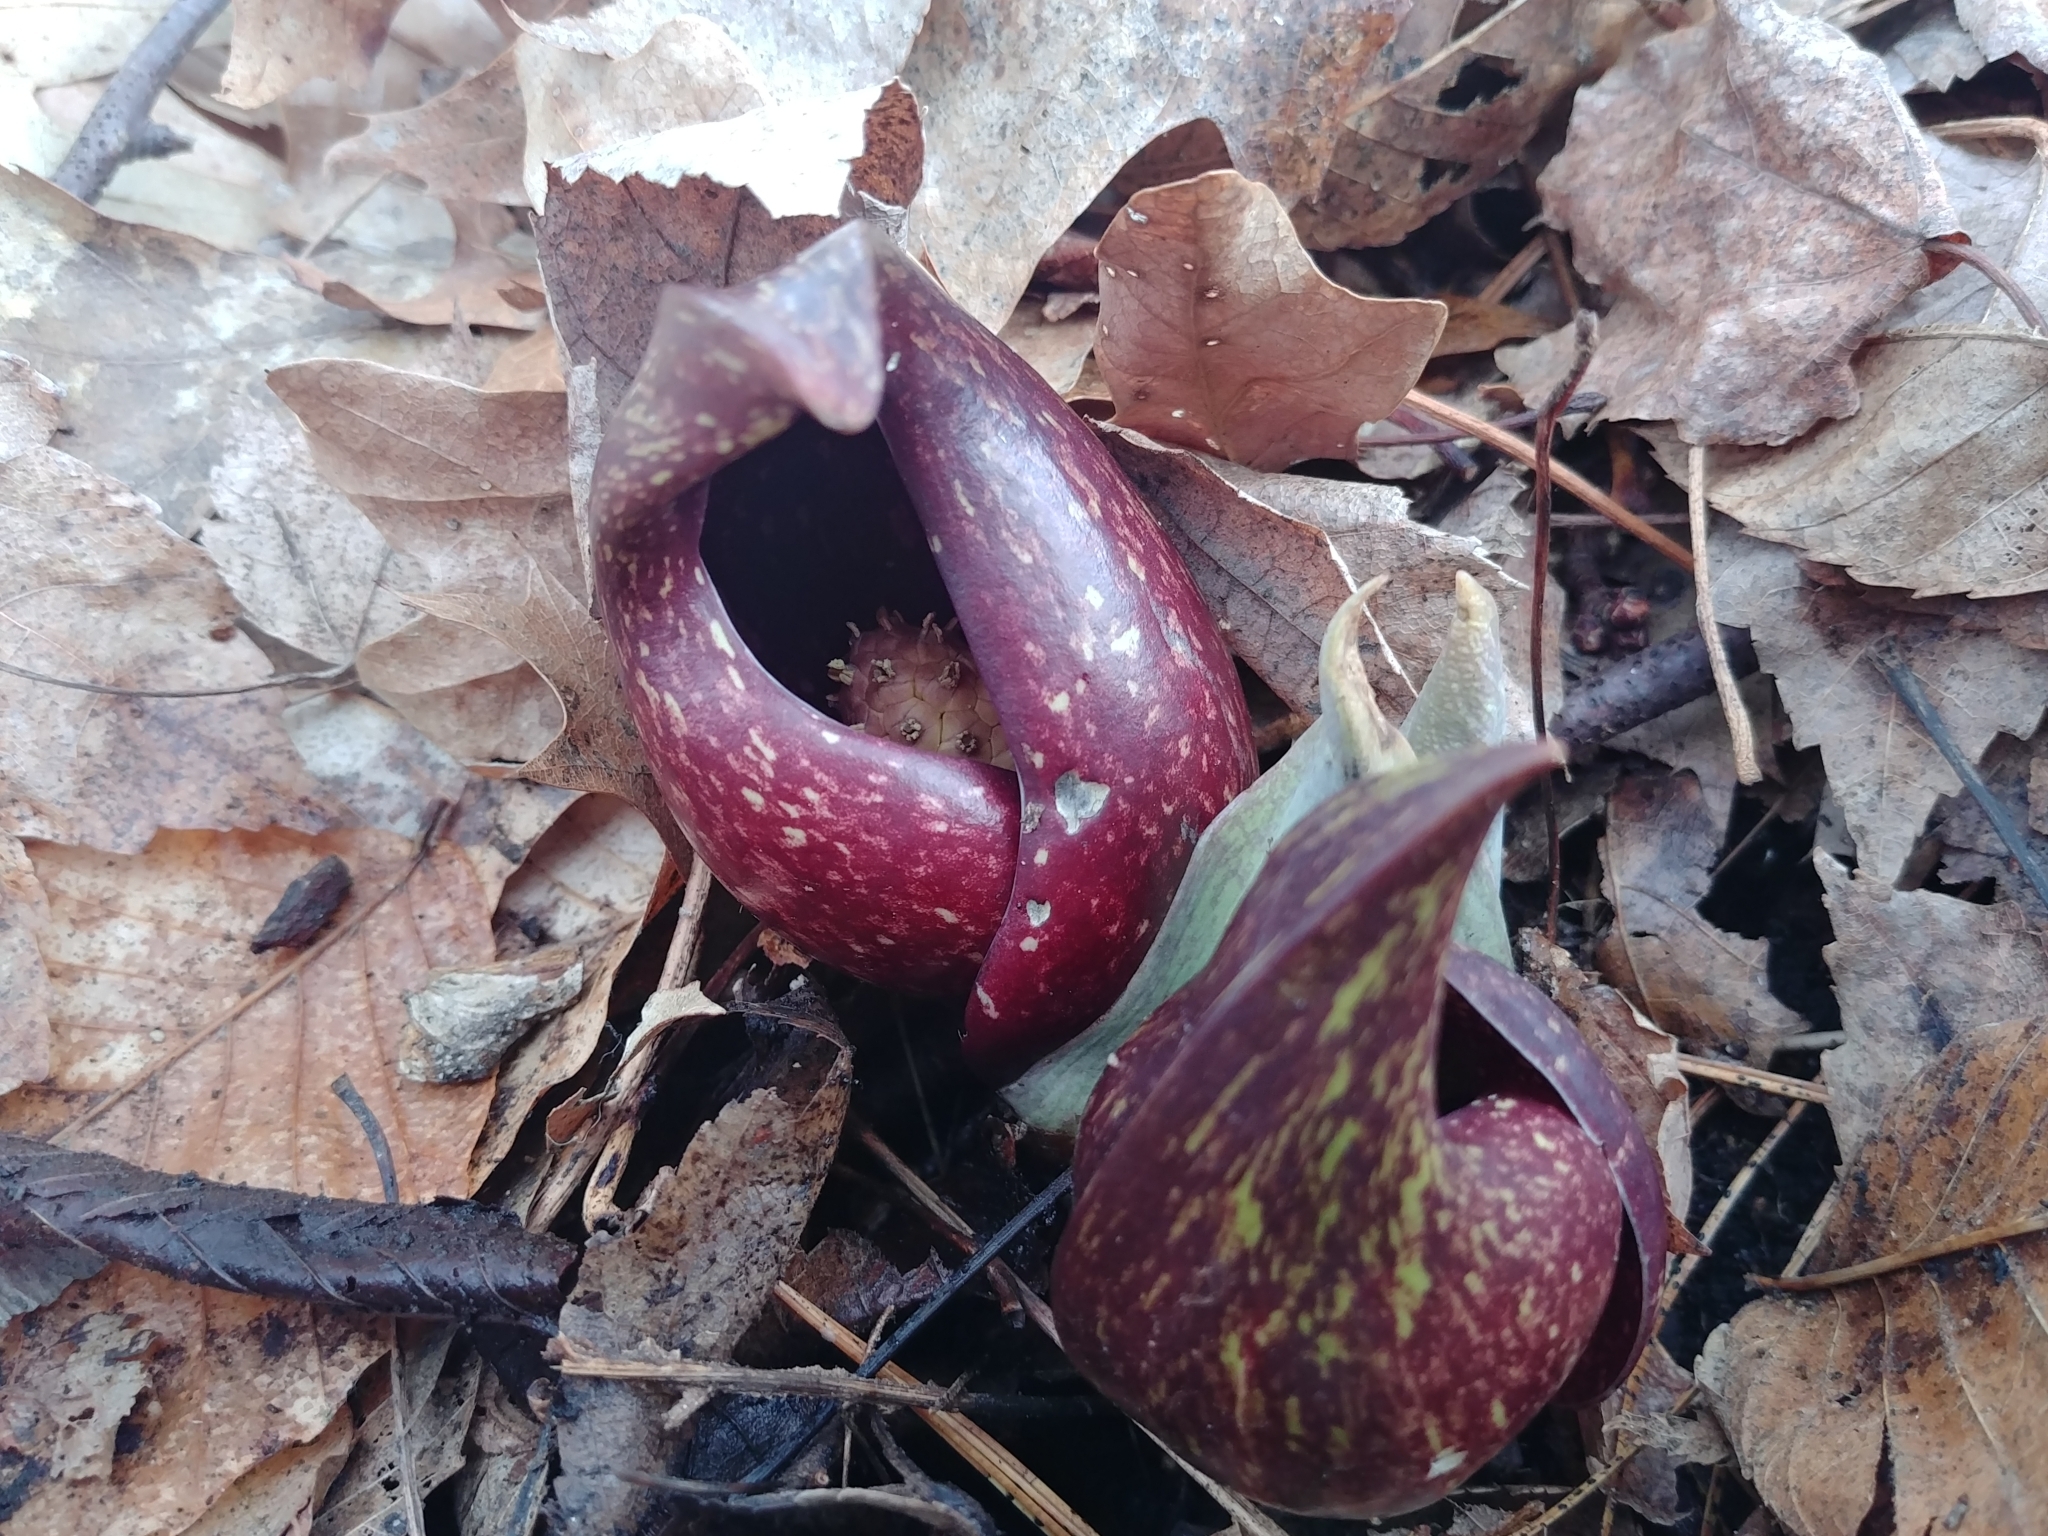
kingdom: Plantae
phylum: Tracheophyta
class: Liliopsida
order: Alismatales
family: Araceae
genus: Symplocarpus
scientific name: Symplocarpus foetidus
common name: Eastern skunk cabbage
